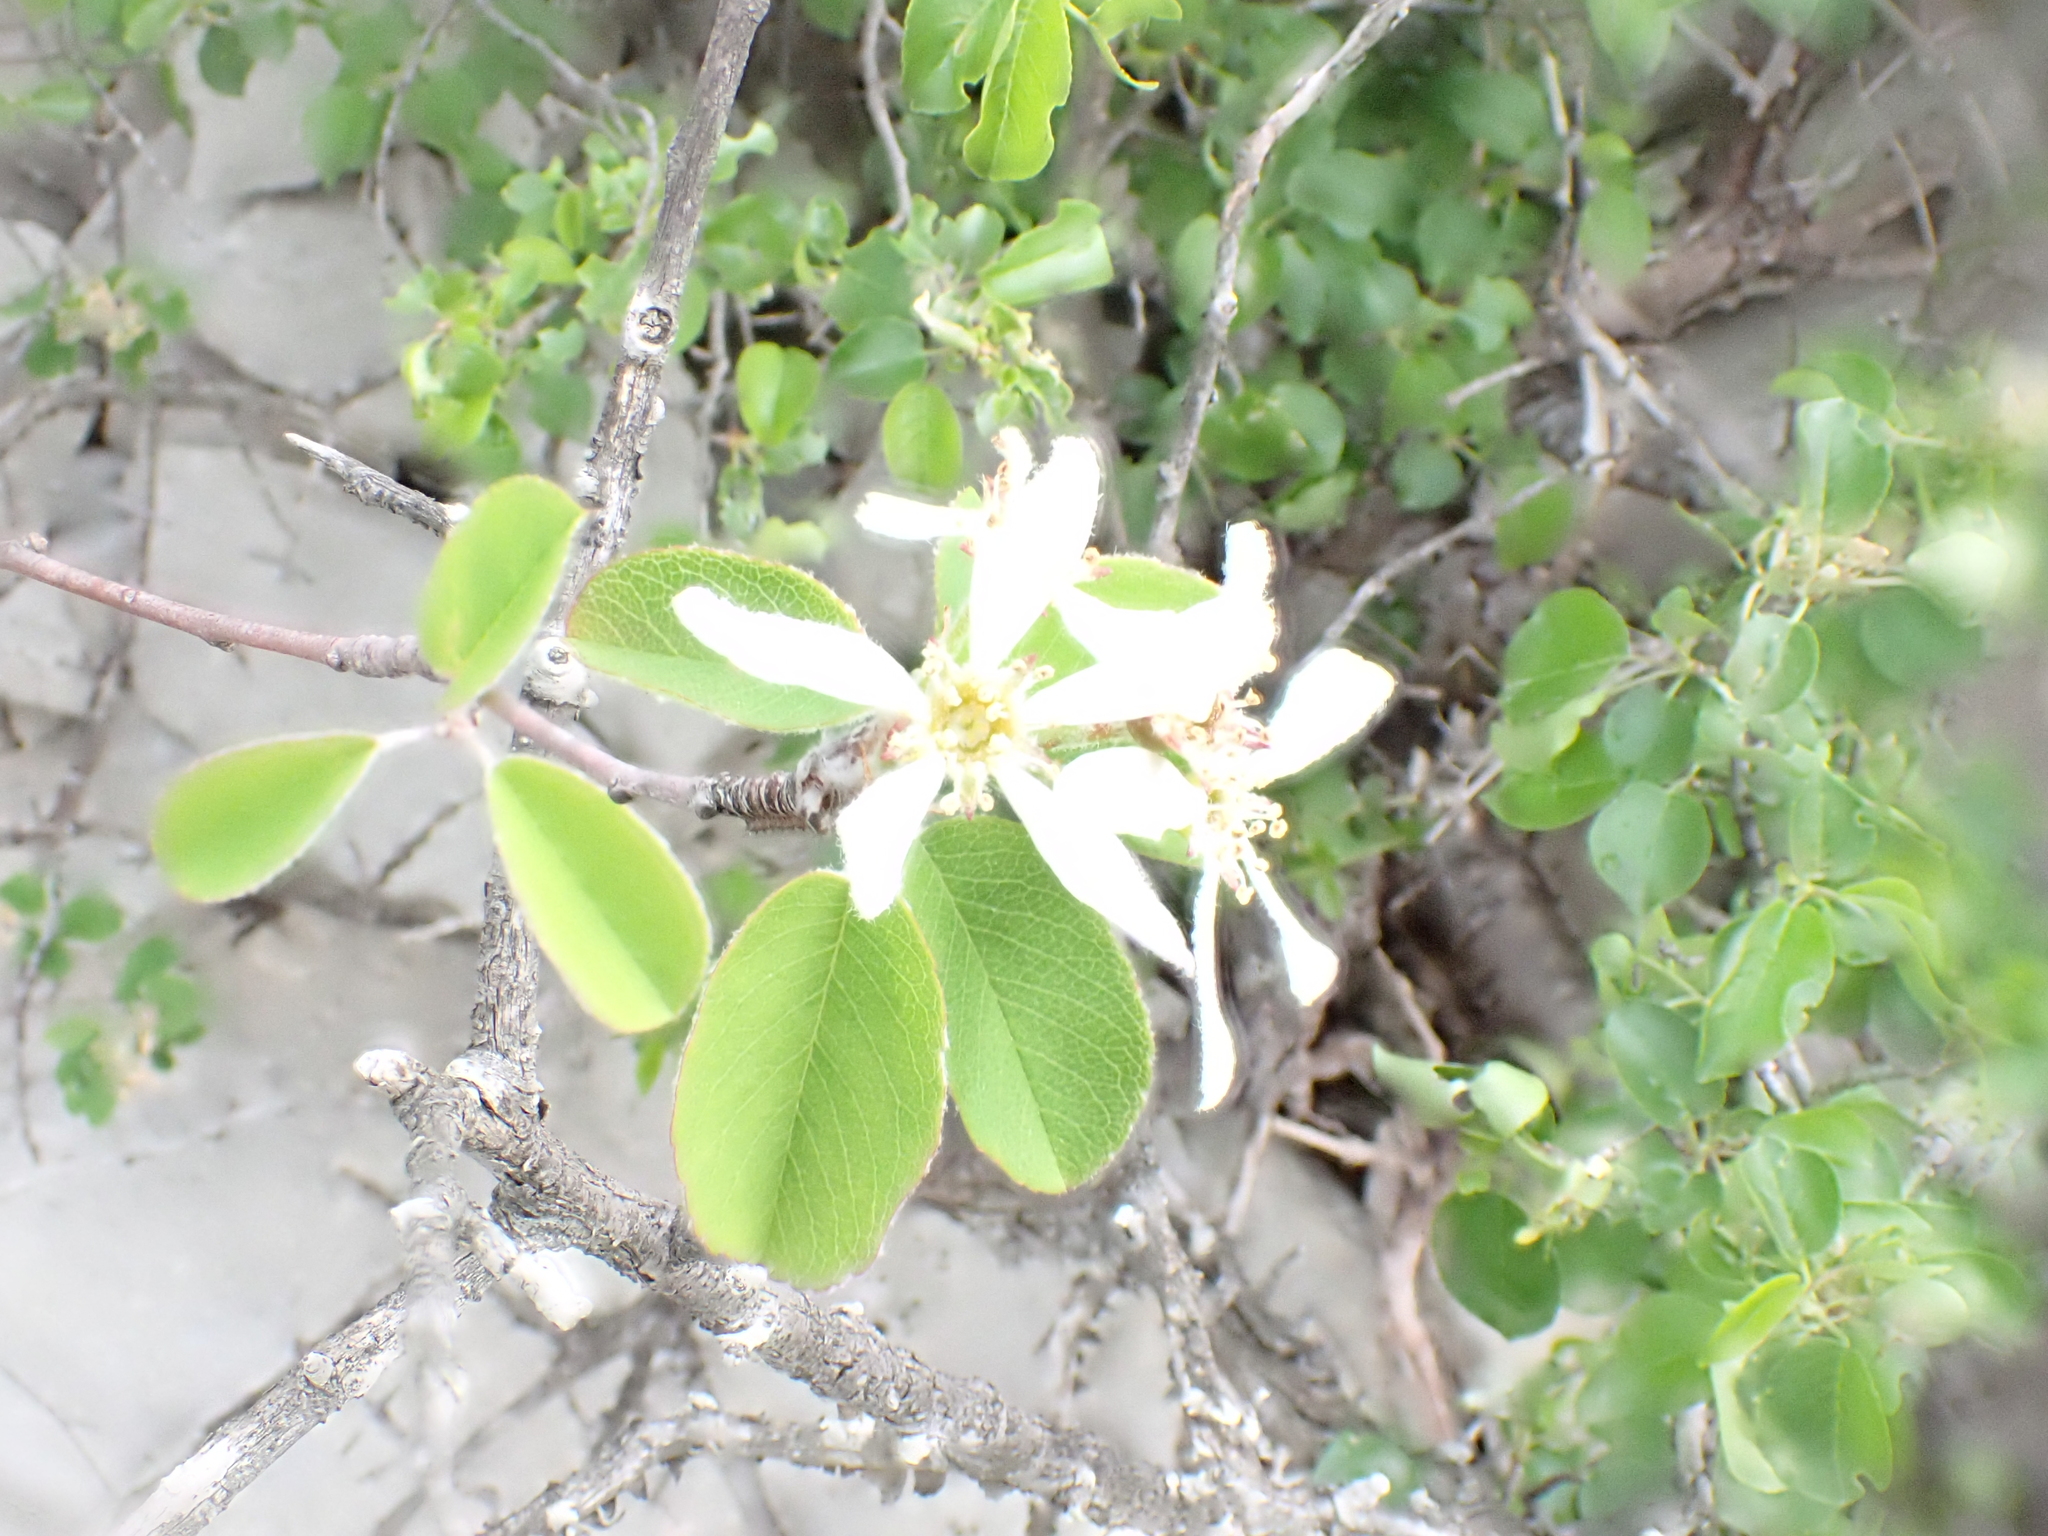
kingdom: Plantae
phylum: Tracheophyta
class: Magnoliopsida
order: Rosales
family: Rosaceae
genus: Amelanchier
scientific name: Amelanchier ovalis
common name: Serviceberry
